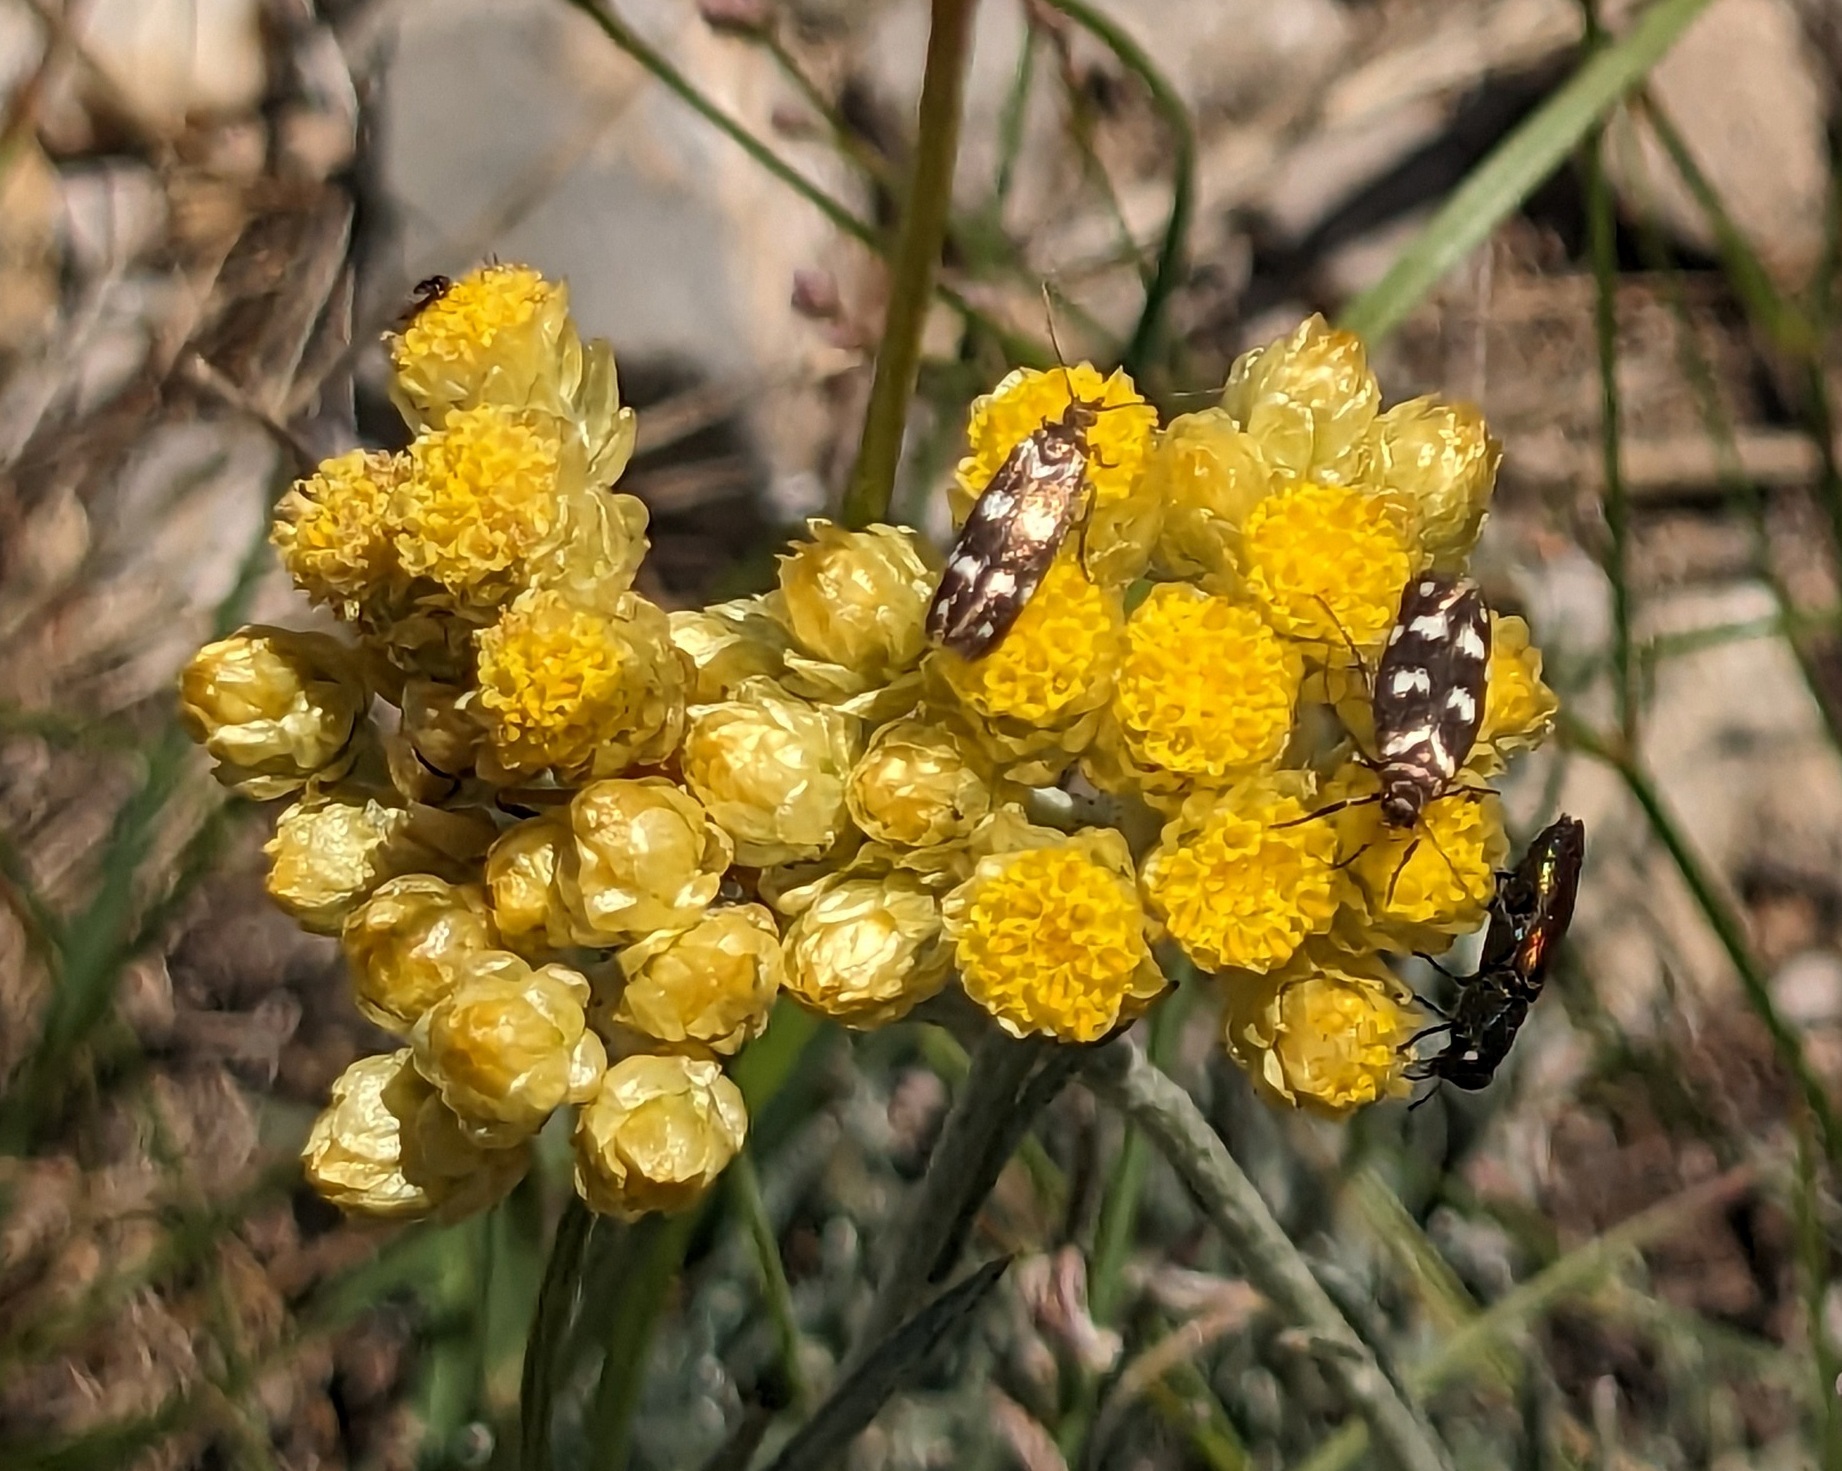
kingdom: Animalia
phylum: Arthropoda
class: Insecta
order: Lepidoptera
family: Scythrididae
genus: Scythris
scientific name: Scythris scopolella
